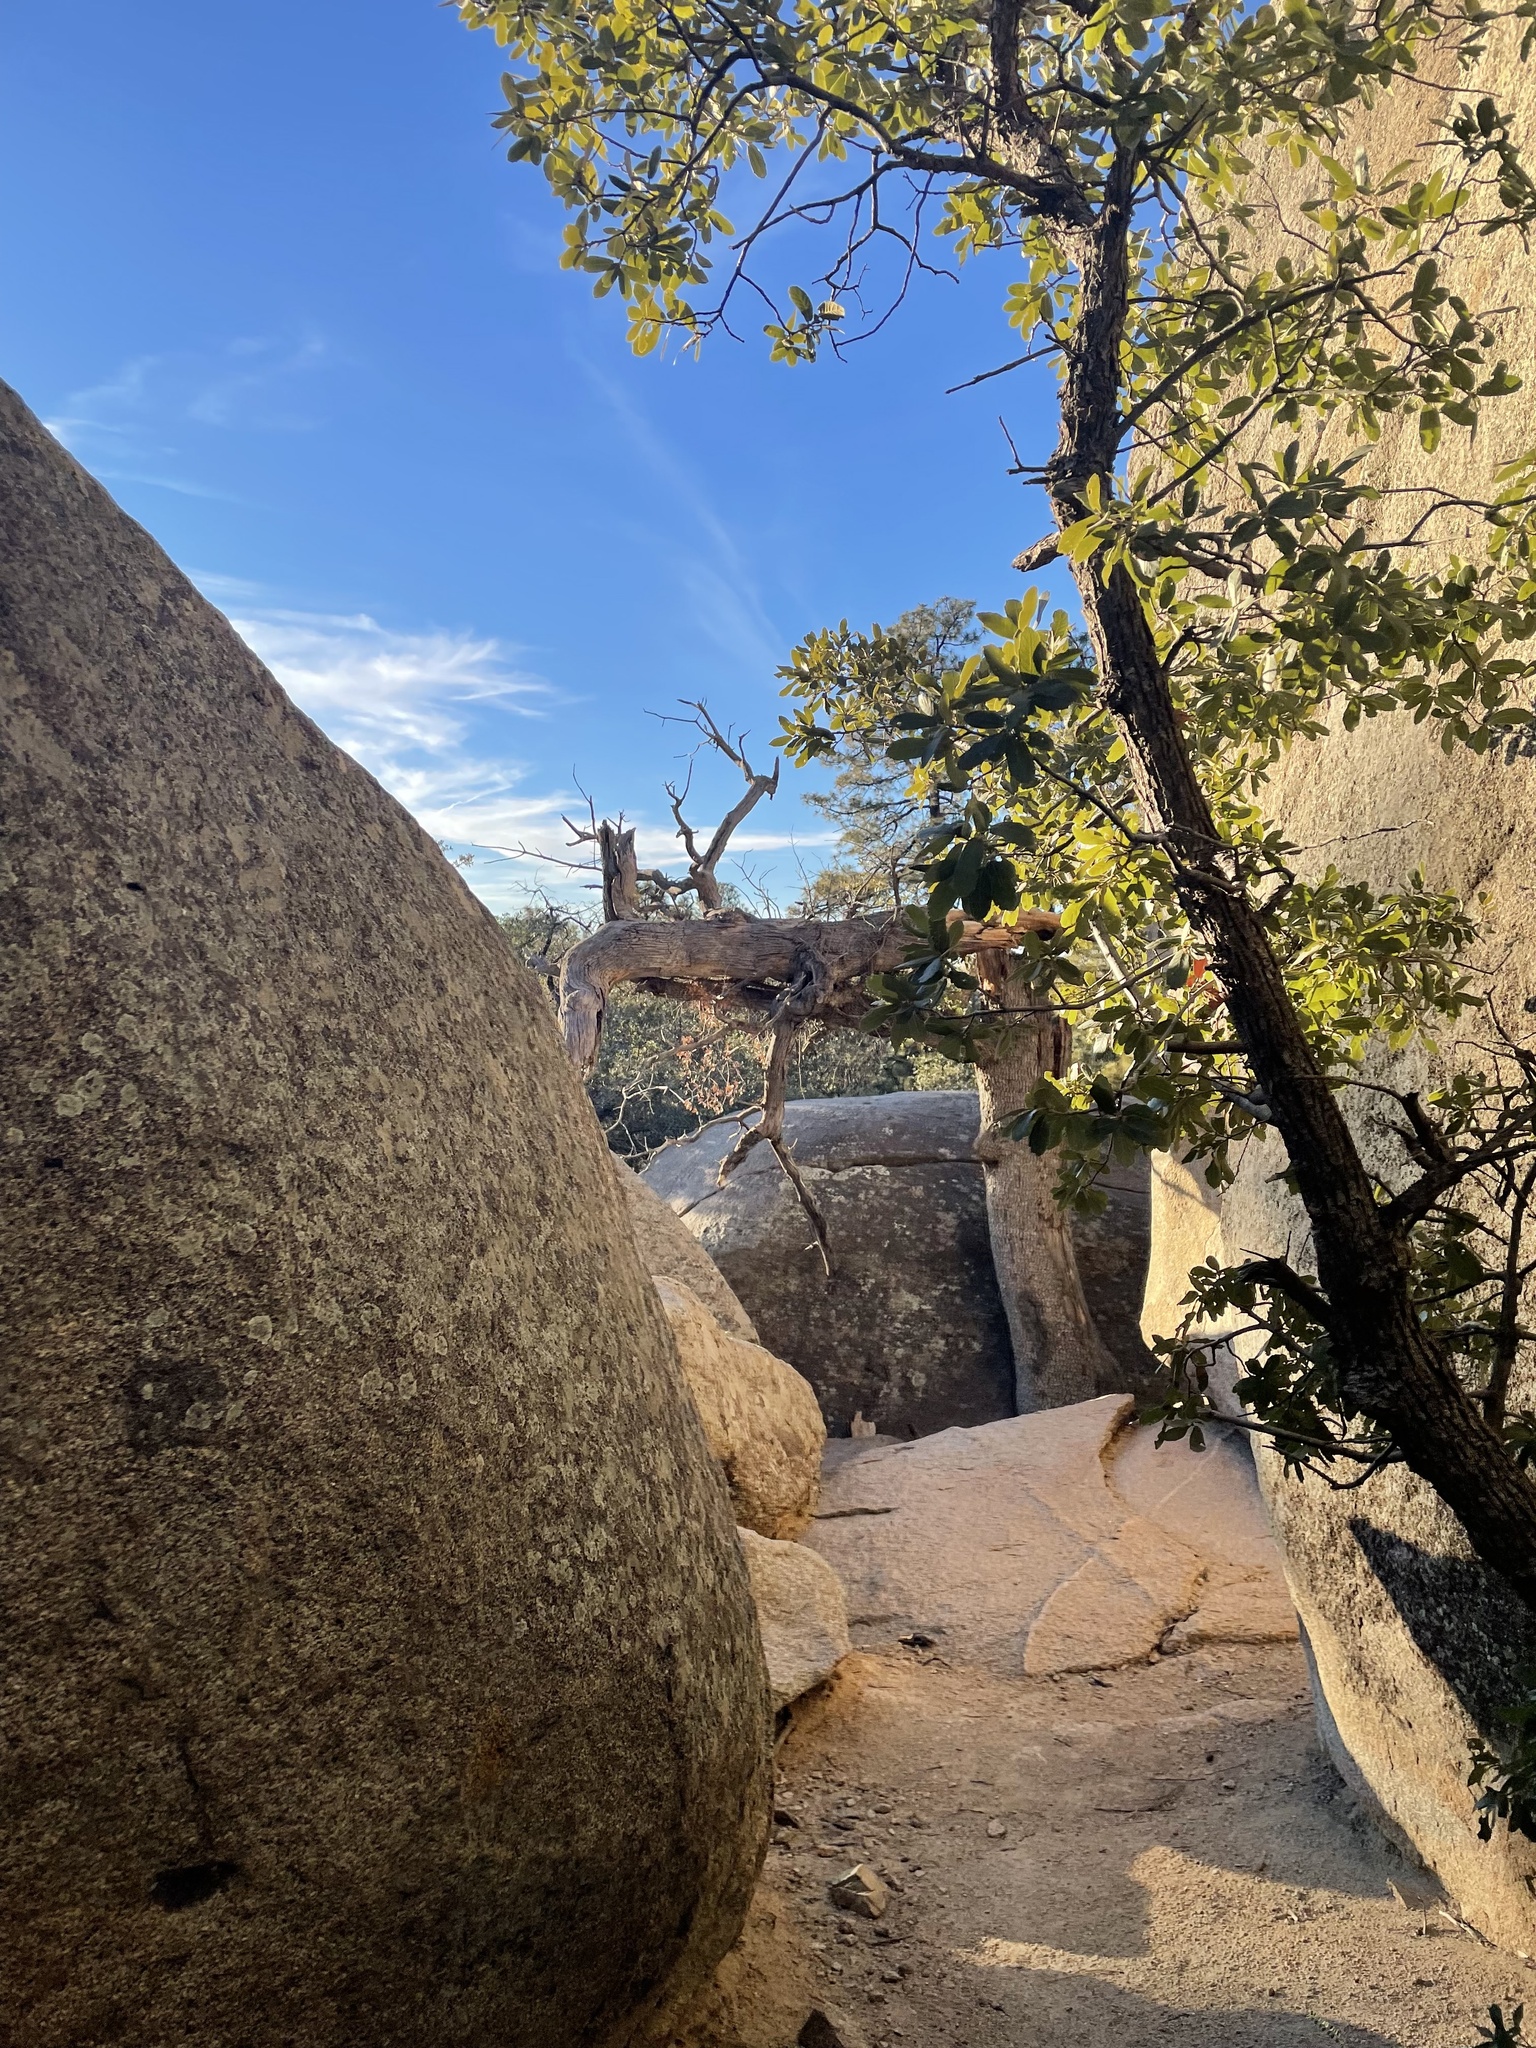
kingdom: Plantae
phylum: Tracheophyta
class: Magnoliopsida
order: Fagales
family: Fagaceae
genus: Quercus
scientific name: Quercus emoryi
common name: Emory oak
